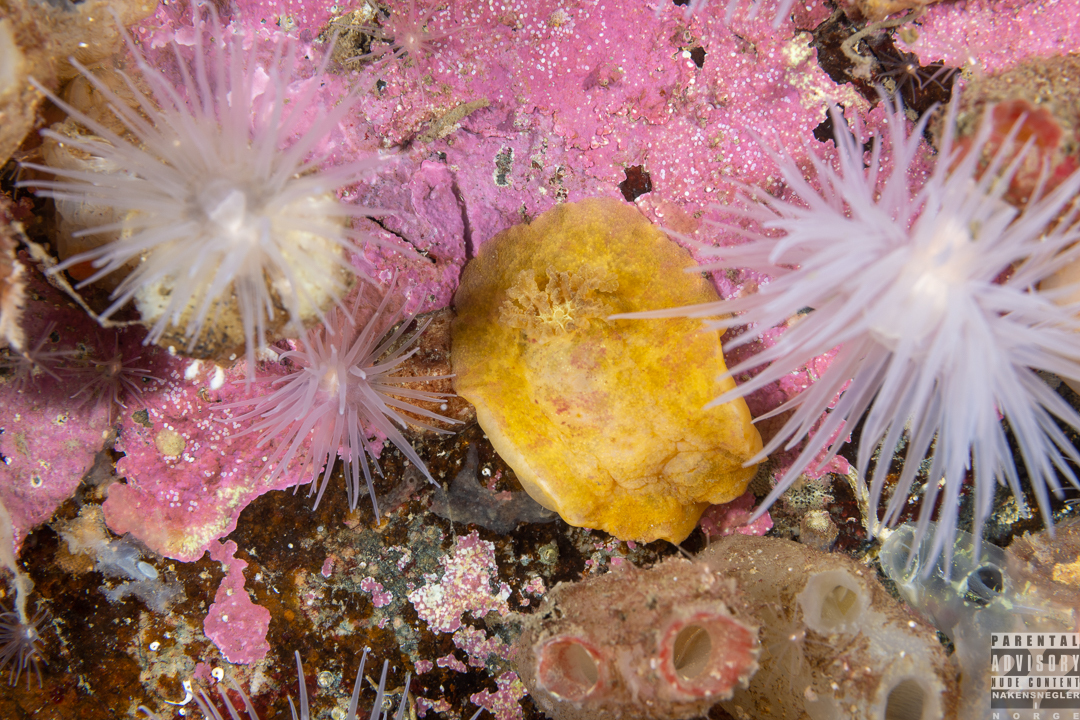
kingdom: Animalia
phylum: Mollusca
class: Gastropoda
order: Nudibranchia
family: Dorididae
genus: Doris
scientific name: Doris pseudoargus
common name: Sea lemon
